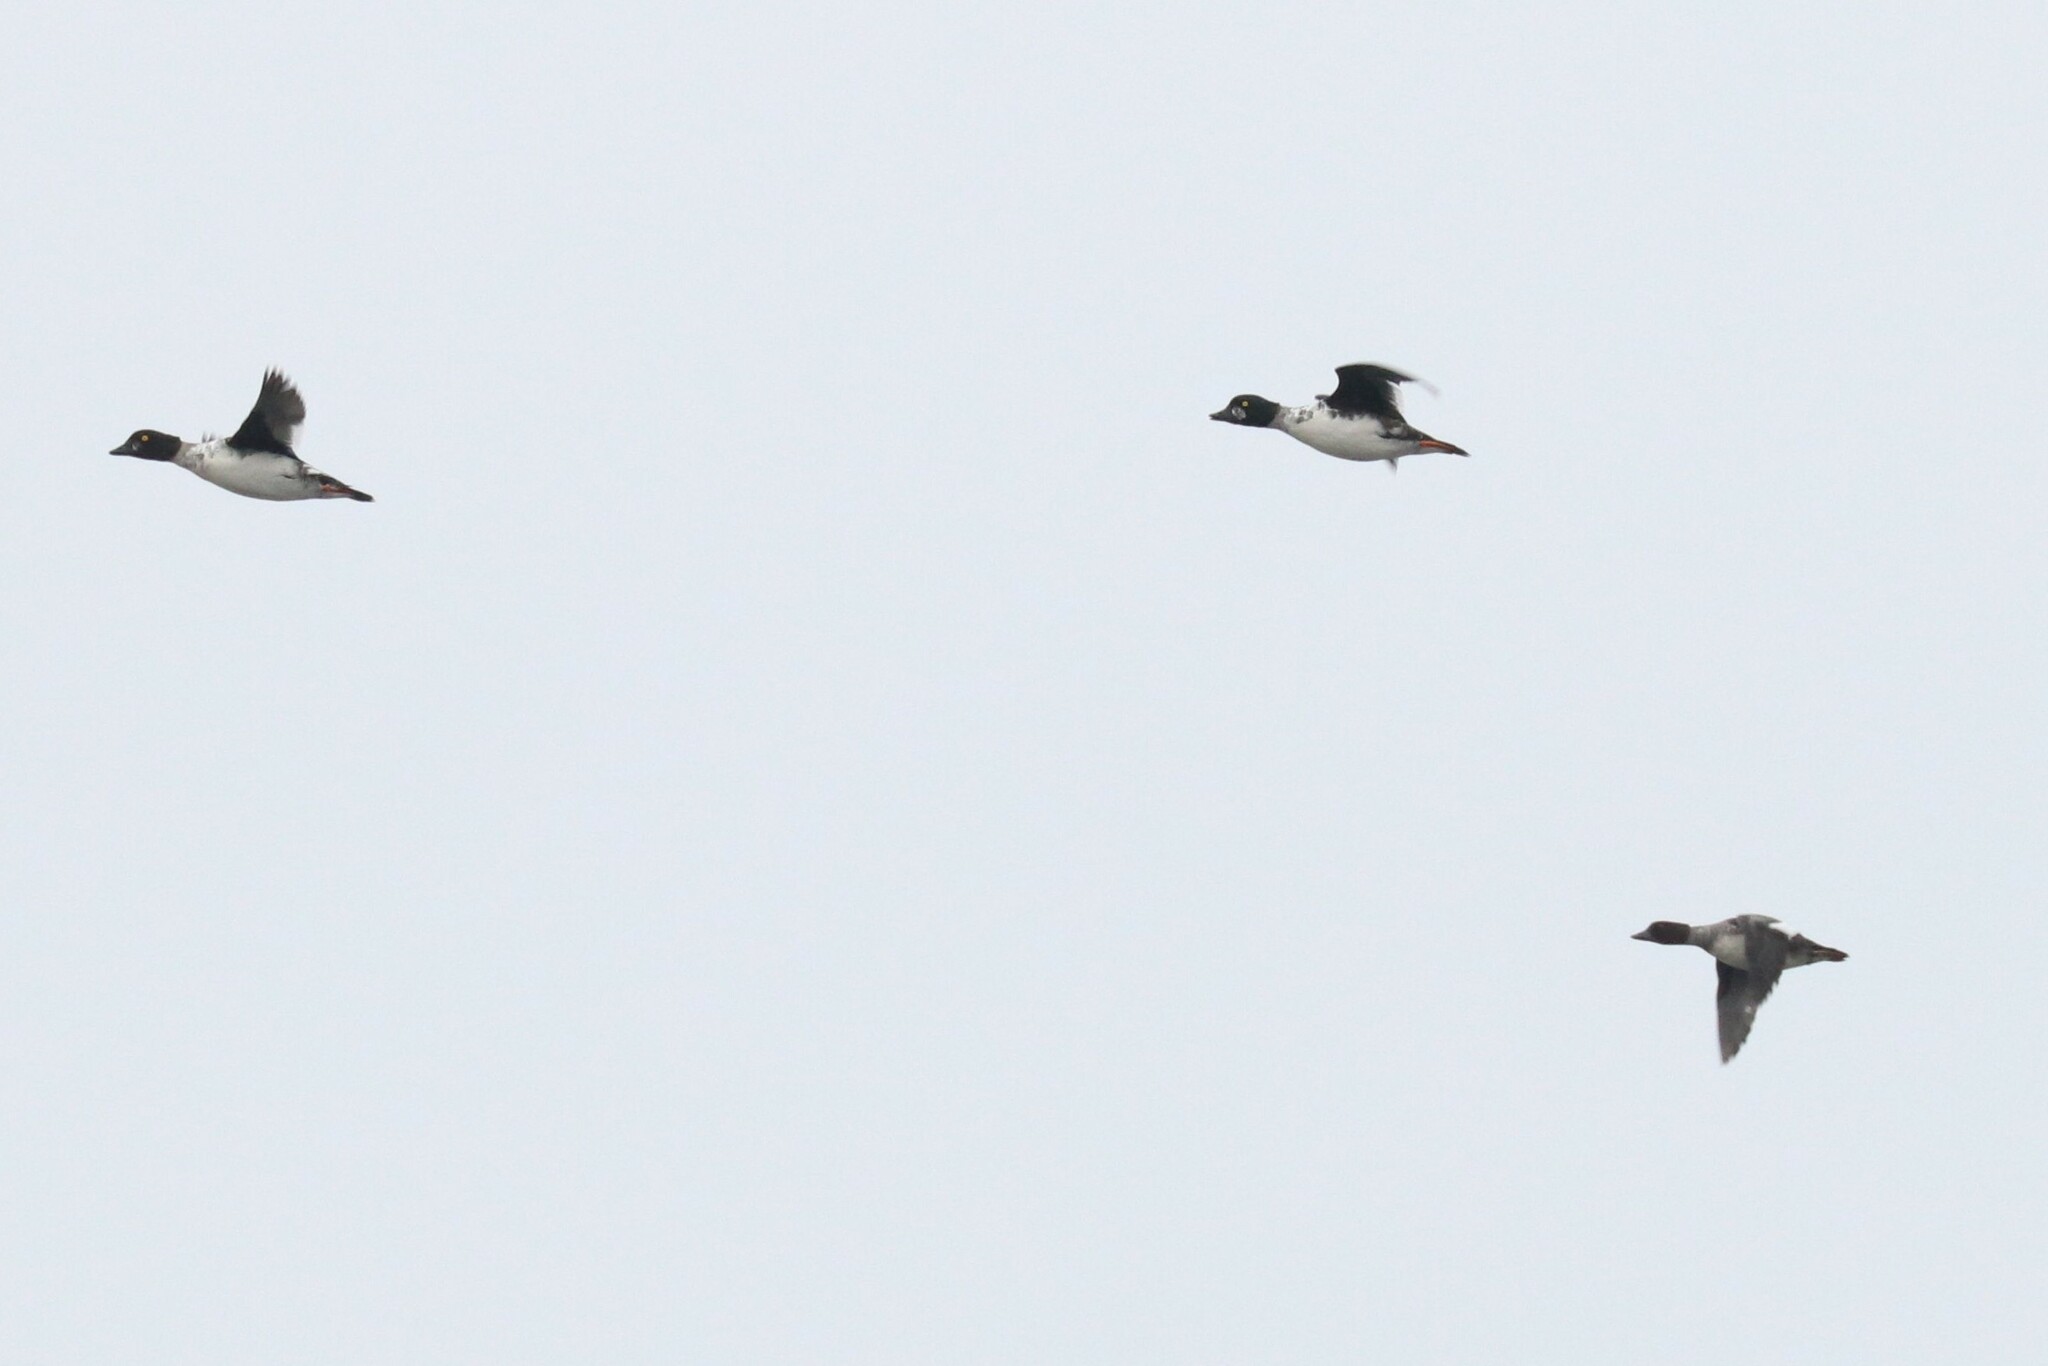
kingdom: Animalia
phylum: Chordata
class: Aves
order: Anseriformes
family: Anatidae
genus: Bucephala
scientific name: Bucephala clangula
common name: Common goldeneye
